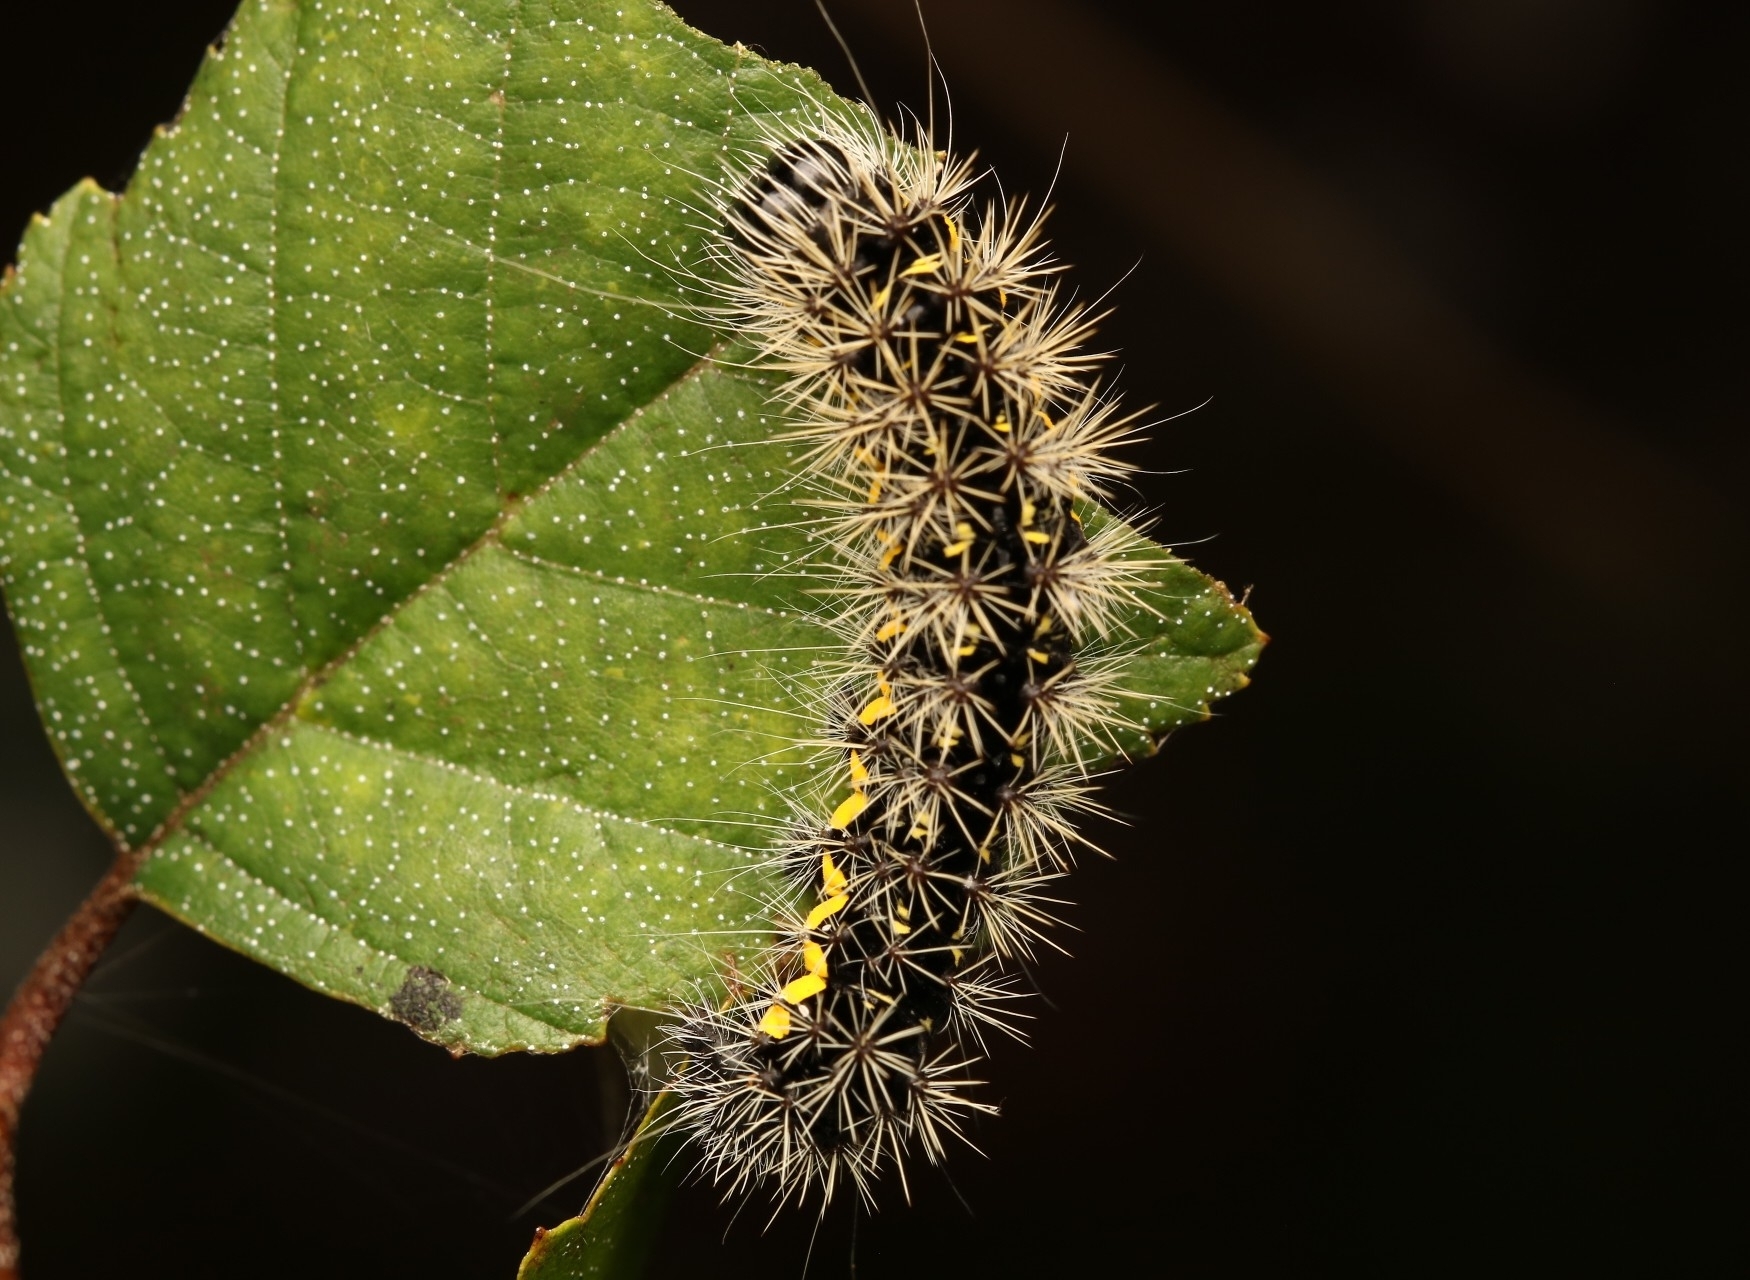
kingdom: Animalia
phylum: Arthropoda
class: Insecta
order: Lepidoptera
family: Noctuidae
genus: Acronicta
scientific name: Acronicta oblinita
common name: Smeared dagger
